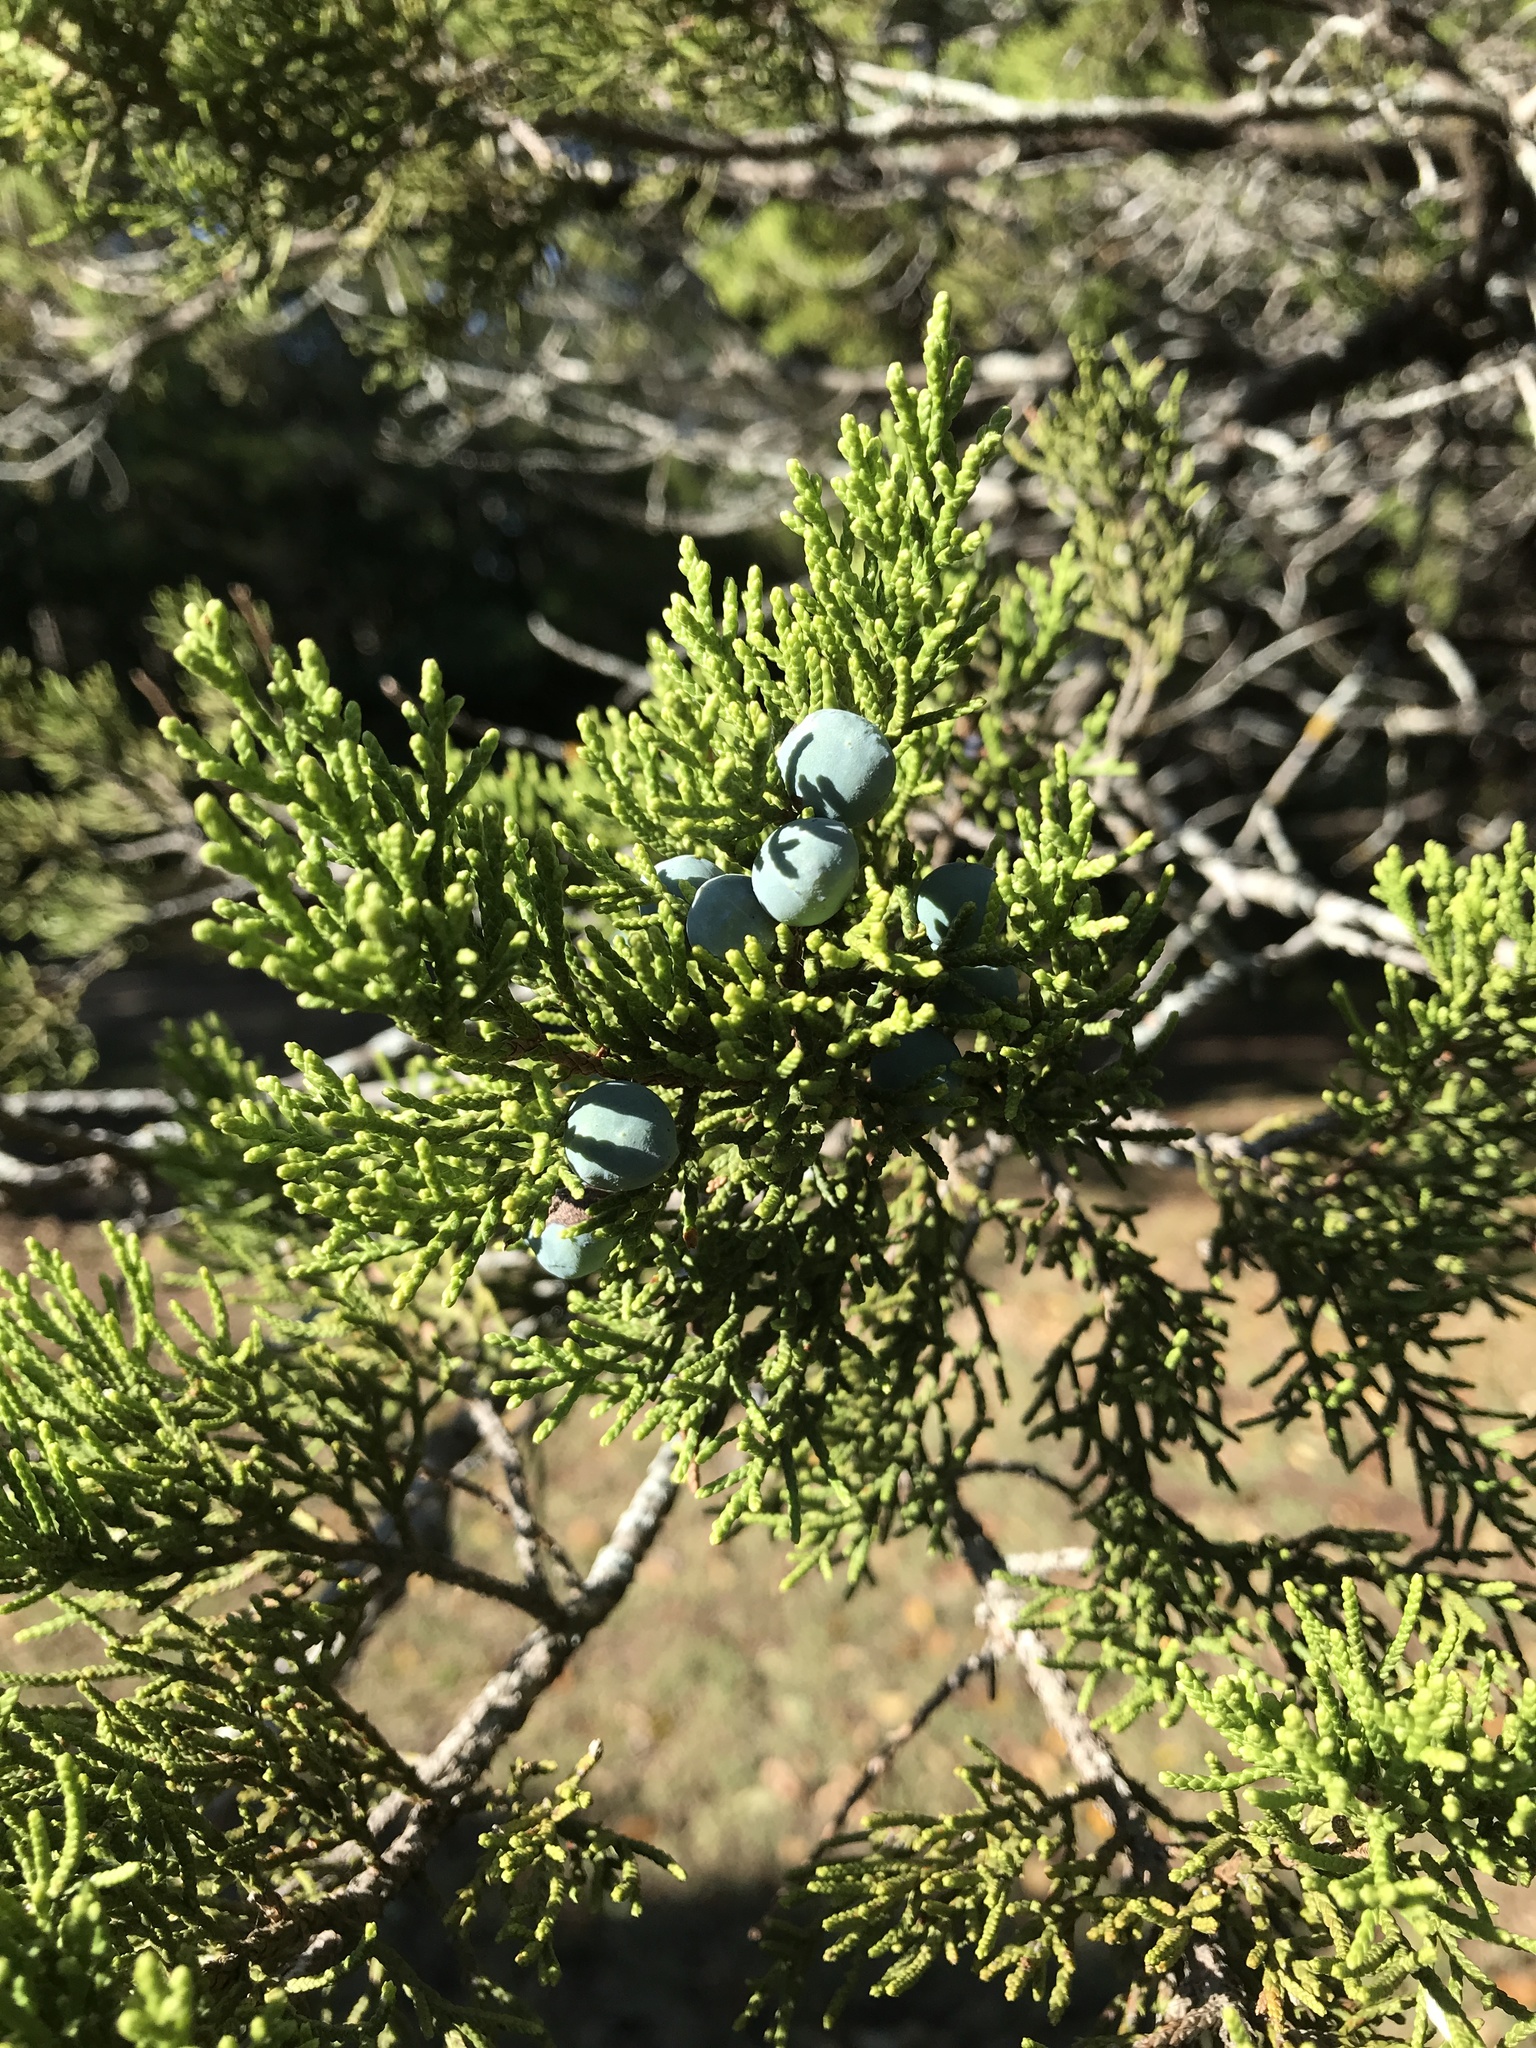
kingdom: Plantae
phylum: Tracheophyta
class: Pinopsida
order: Pinales
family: Cupressaceae
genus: Juniperus
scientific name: Juniperus ashei
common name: Mexican juniper
